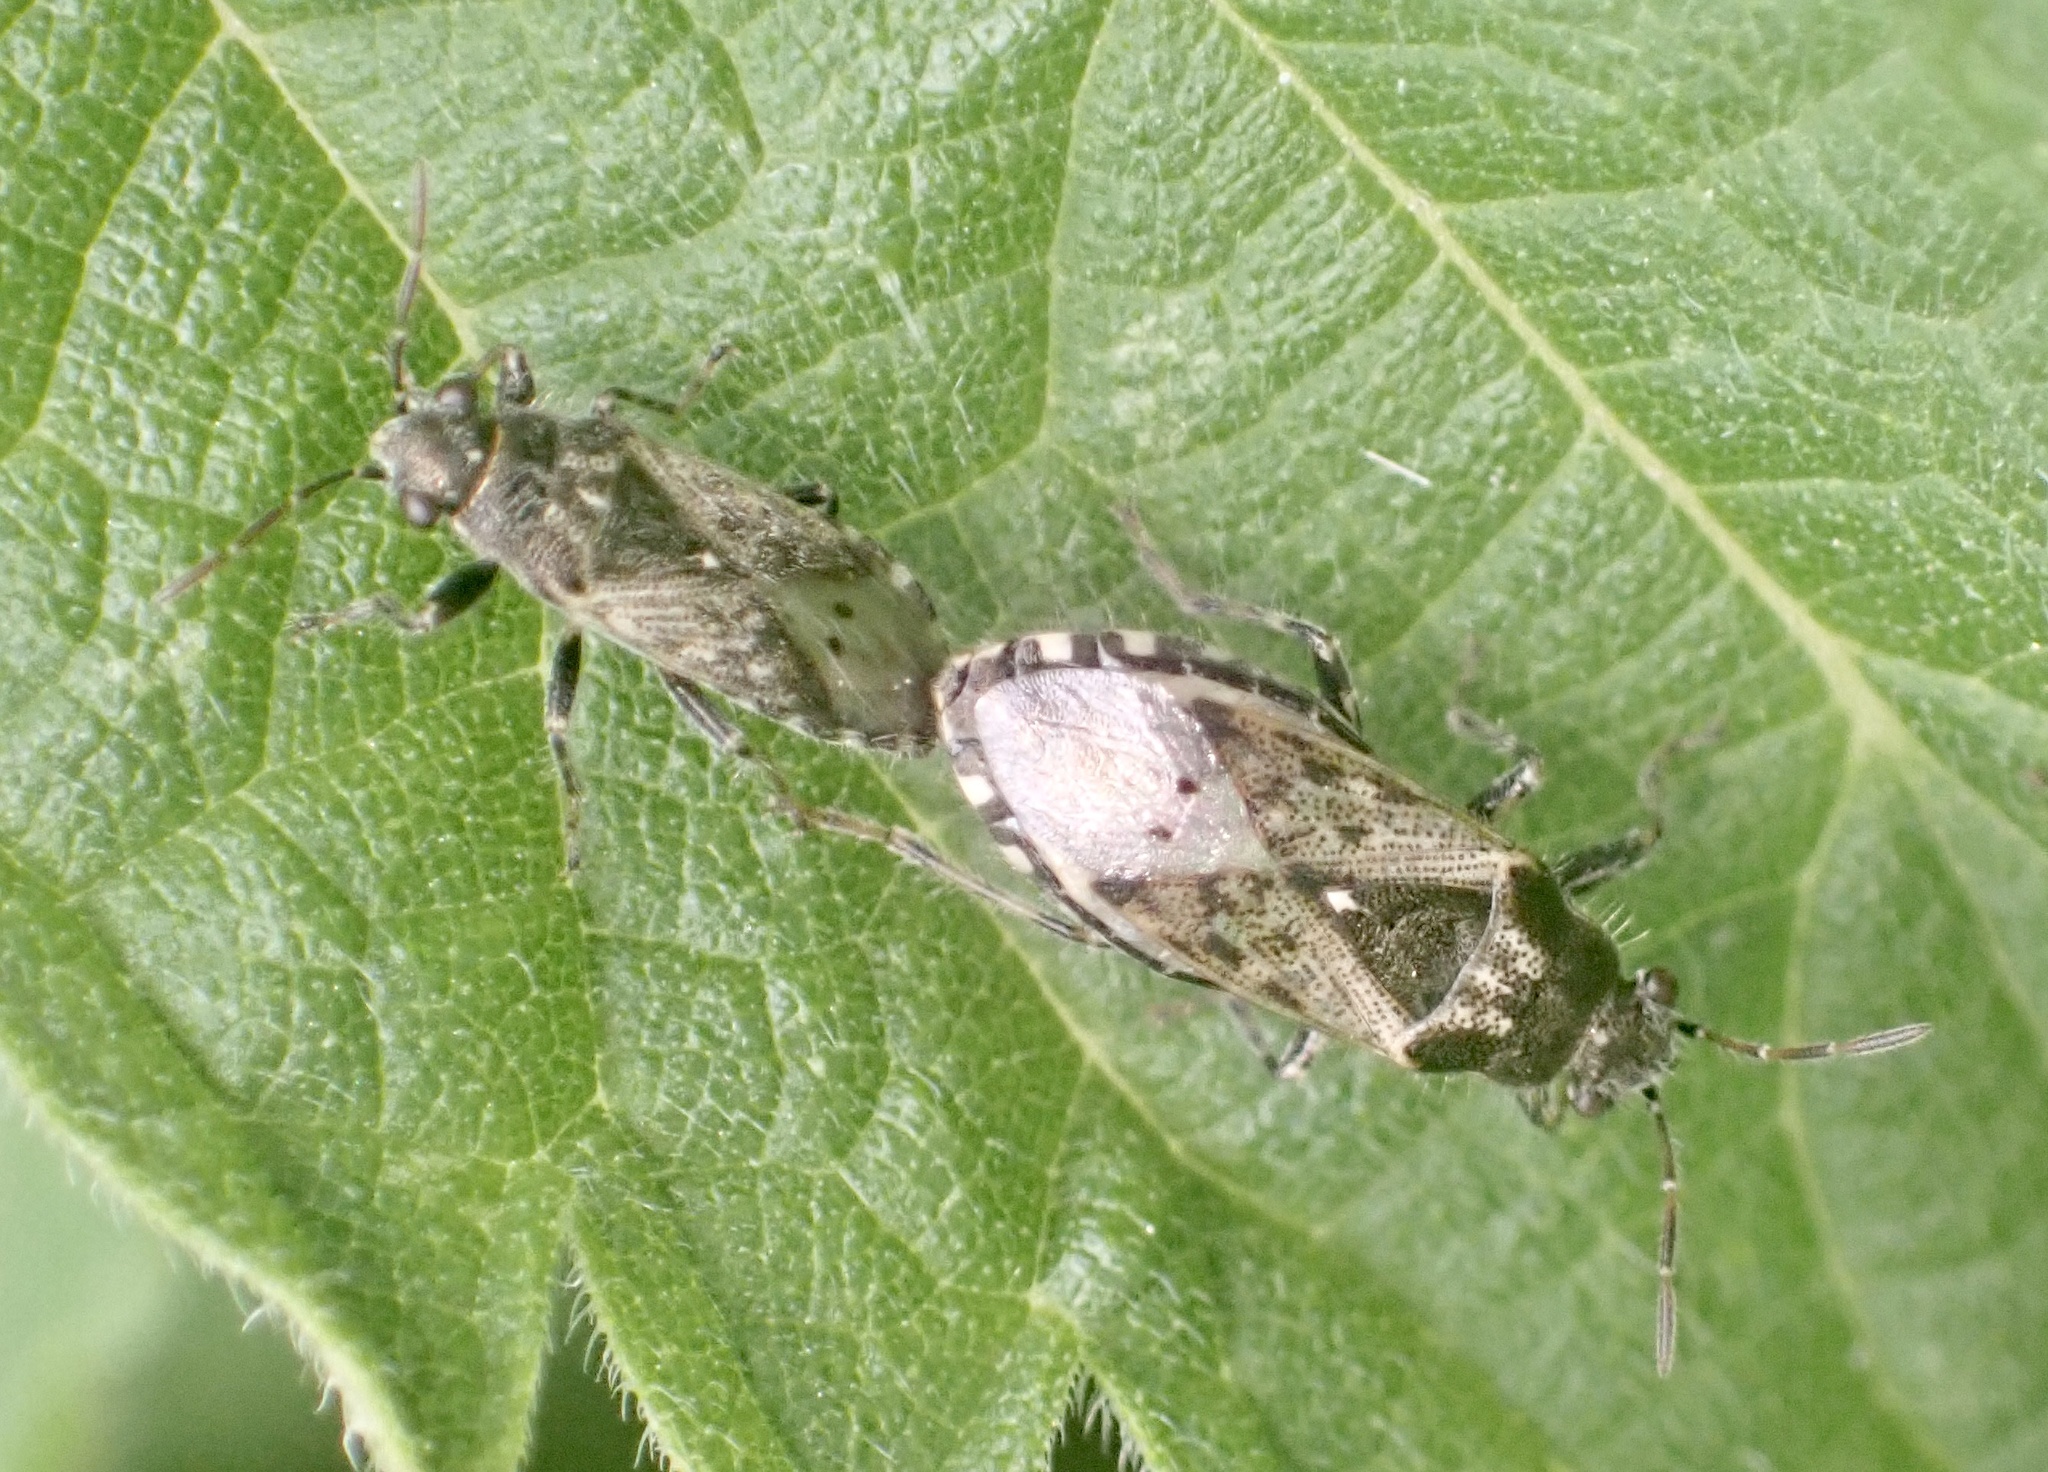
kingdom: Animalia
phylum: Arthropoda
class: Insecta
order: Hemiptera
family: Heterogastridae
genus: Heterogaster
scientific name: Heterogaster urticae
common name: Seed bug
